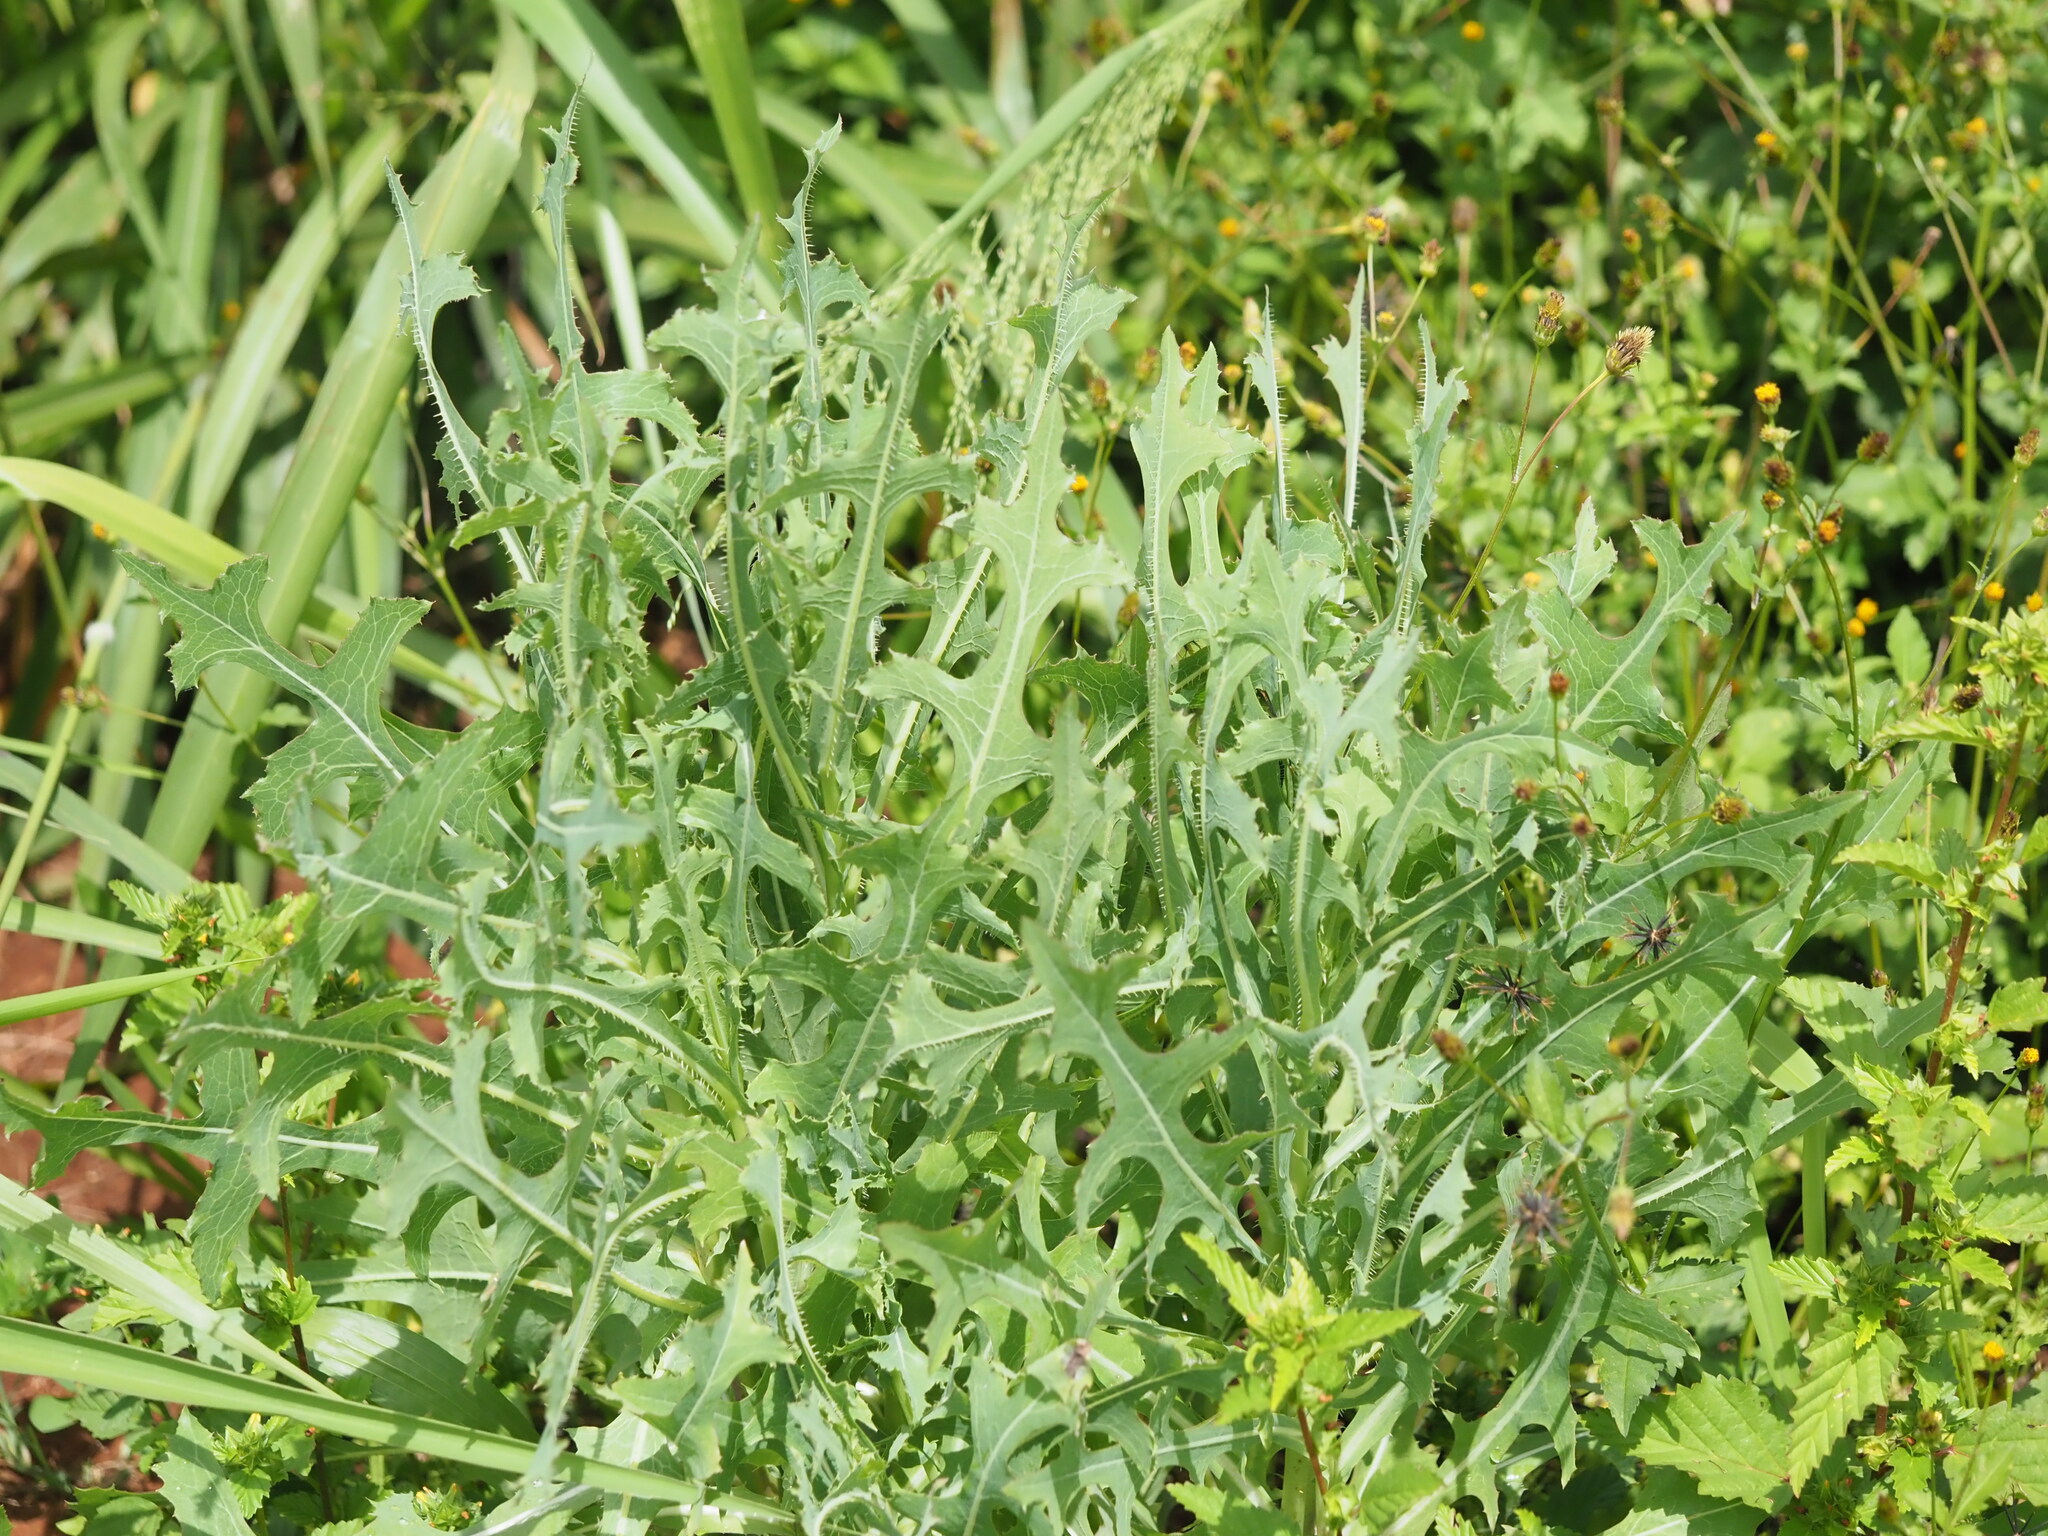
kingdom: Plantae
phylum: Tracheophyta
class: Magnoliopsida
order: Asterales
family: Asteraceae
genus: Lactuca
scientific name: Lactuca serriola
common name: Prickly lettuce
